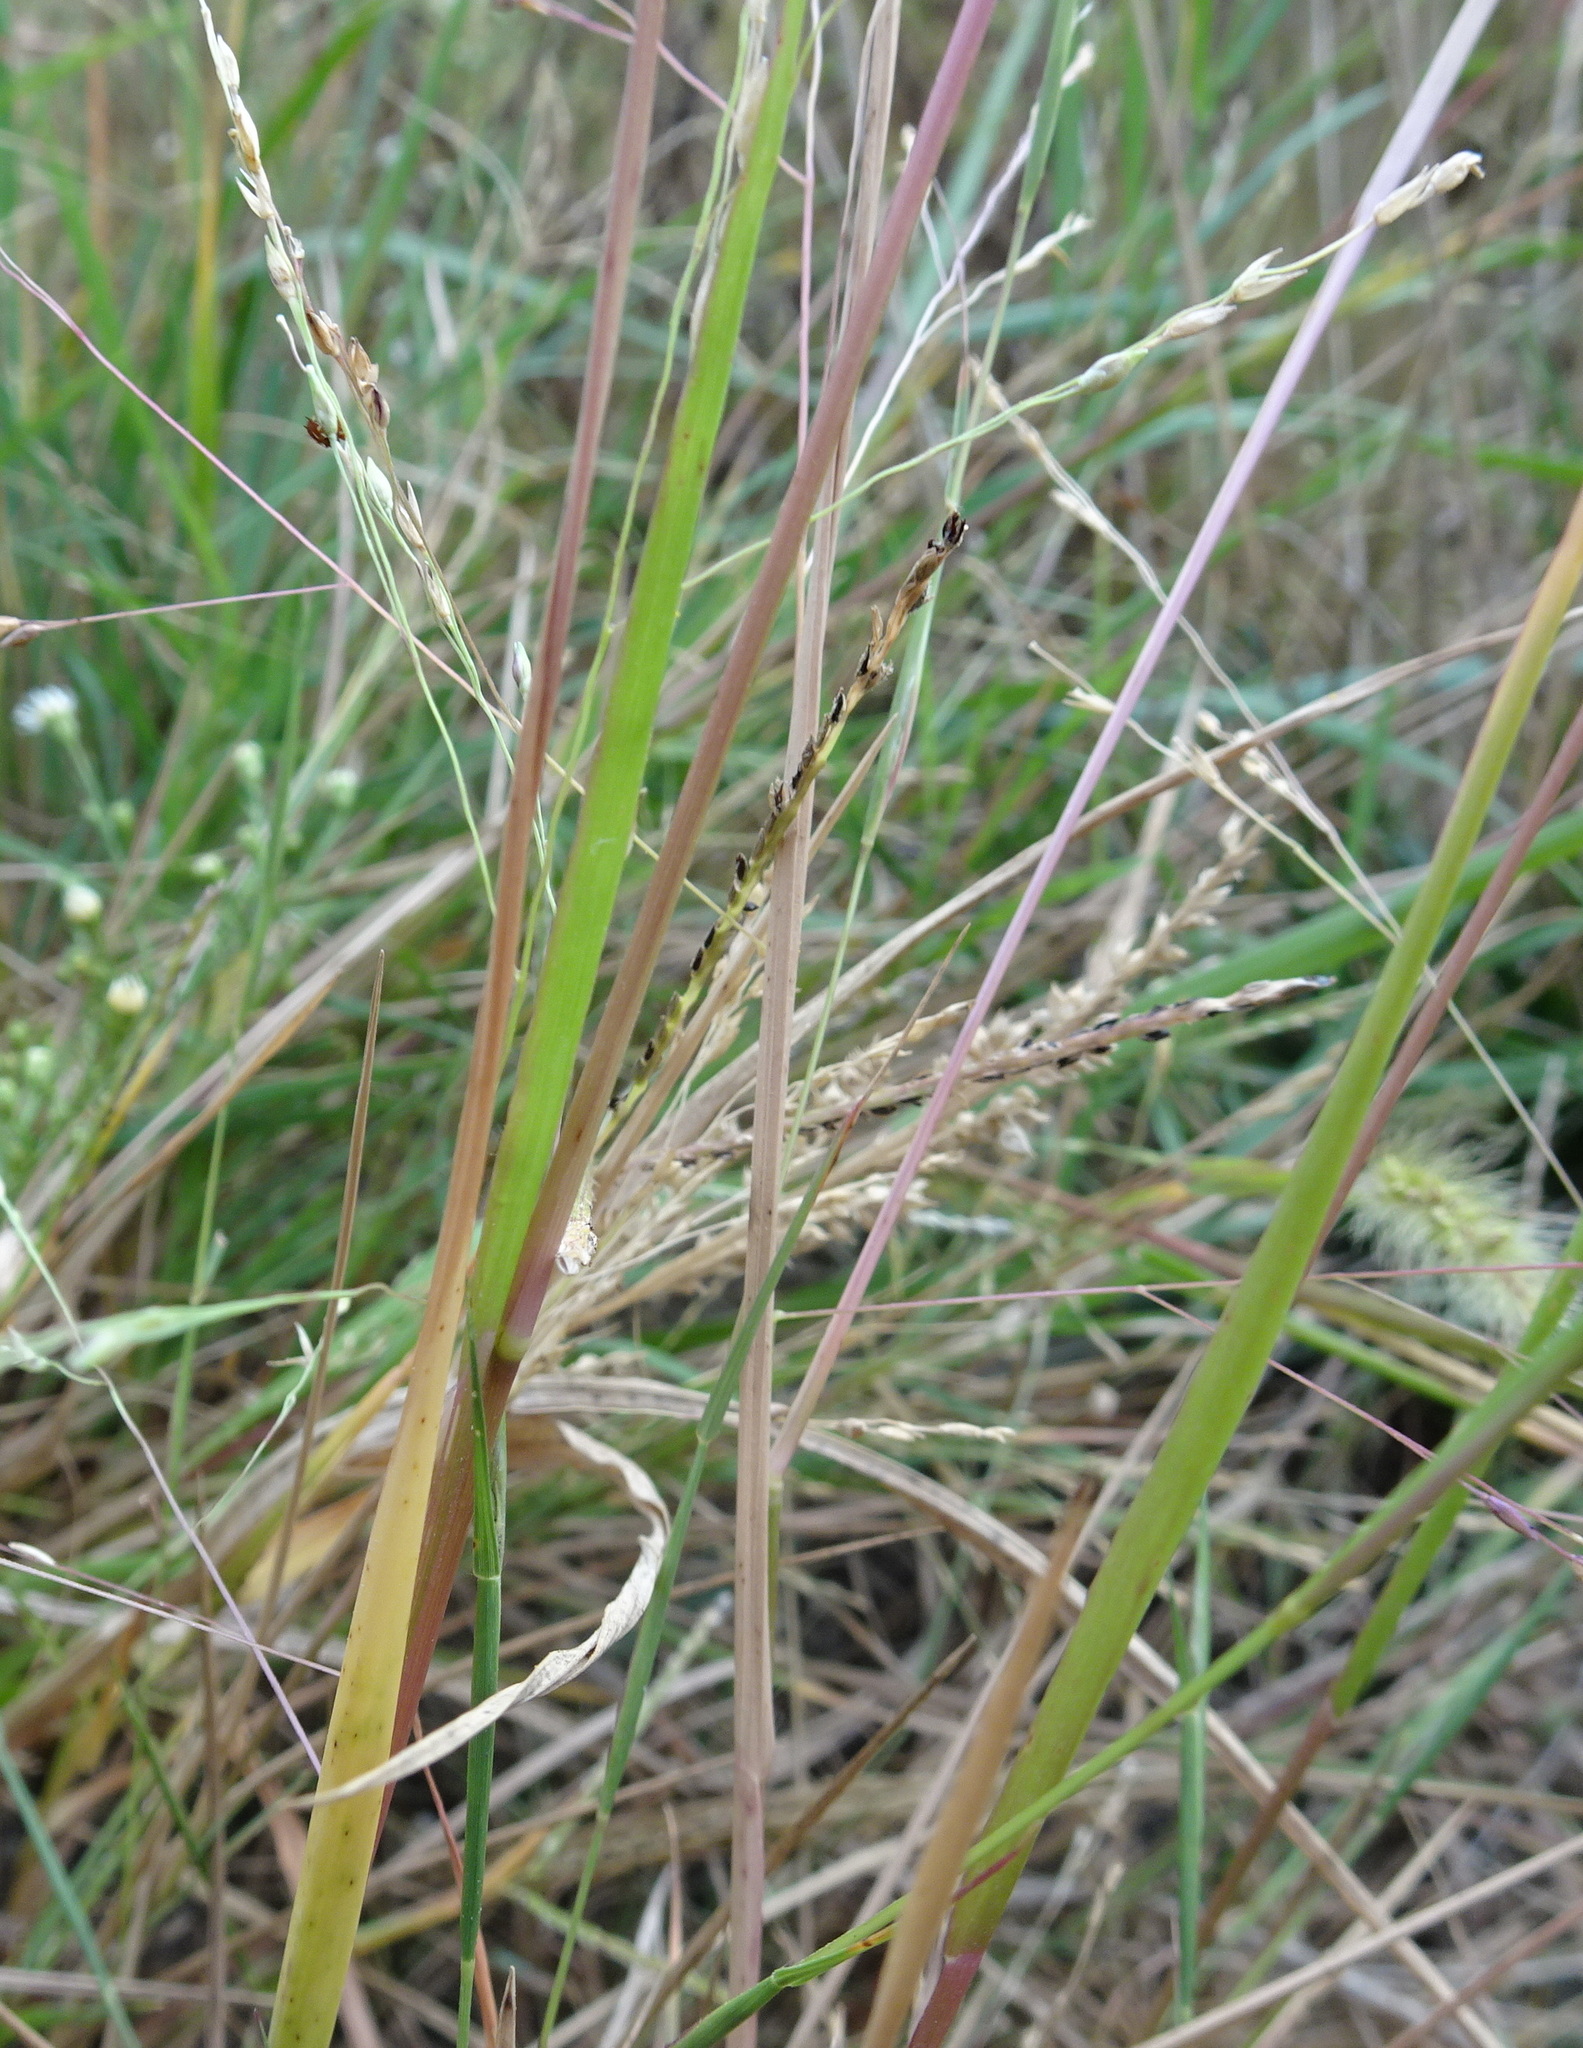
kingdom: Plantae
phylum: Tracheophyta
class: Liliopsida
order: Poales
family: Poaceae
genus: Panicum
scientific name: Panicum dichotomiflorum
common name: Autumn millet
